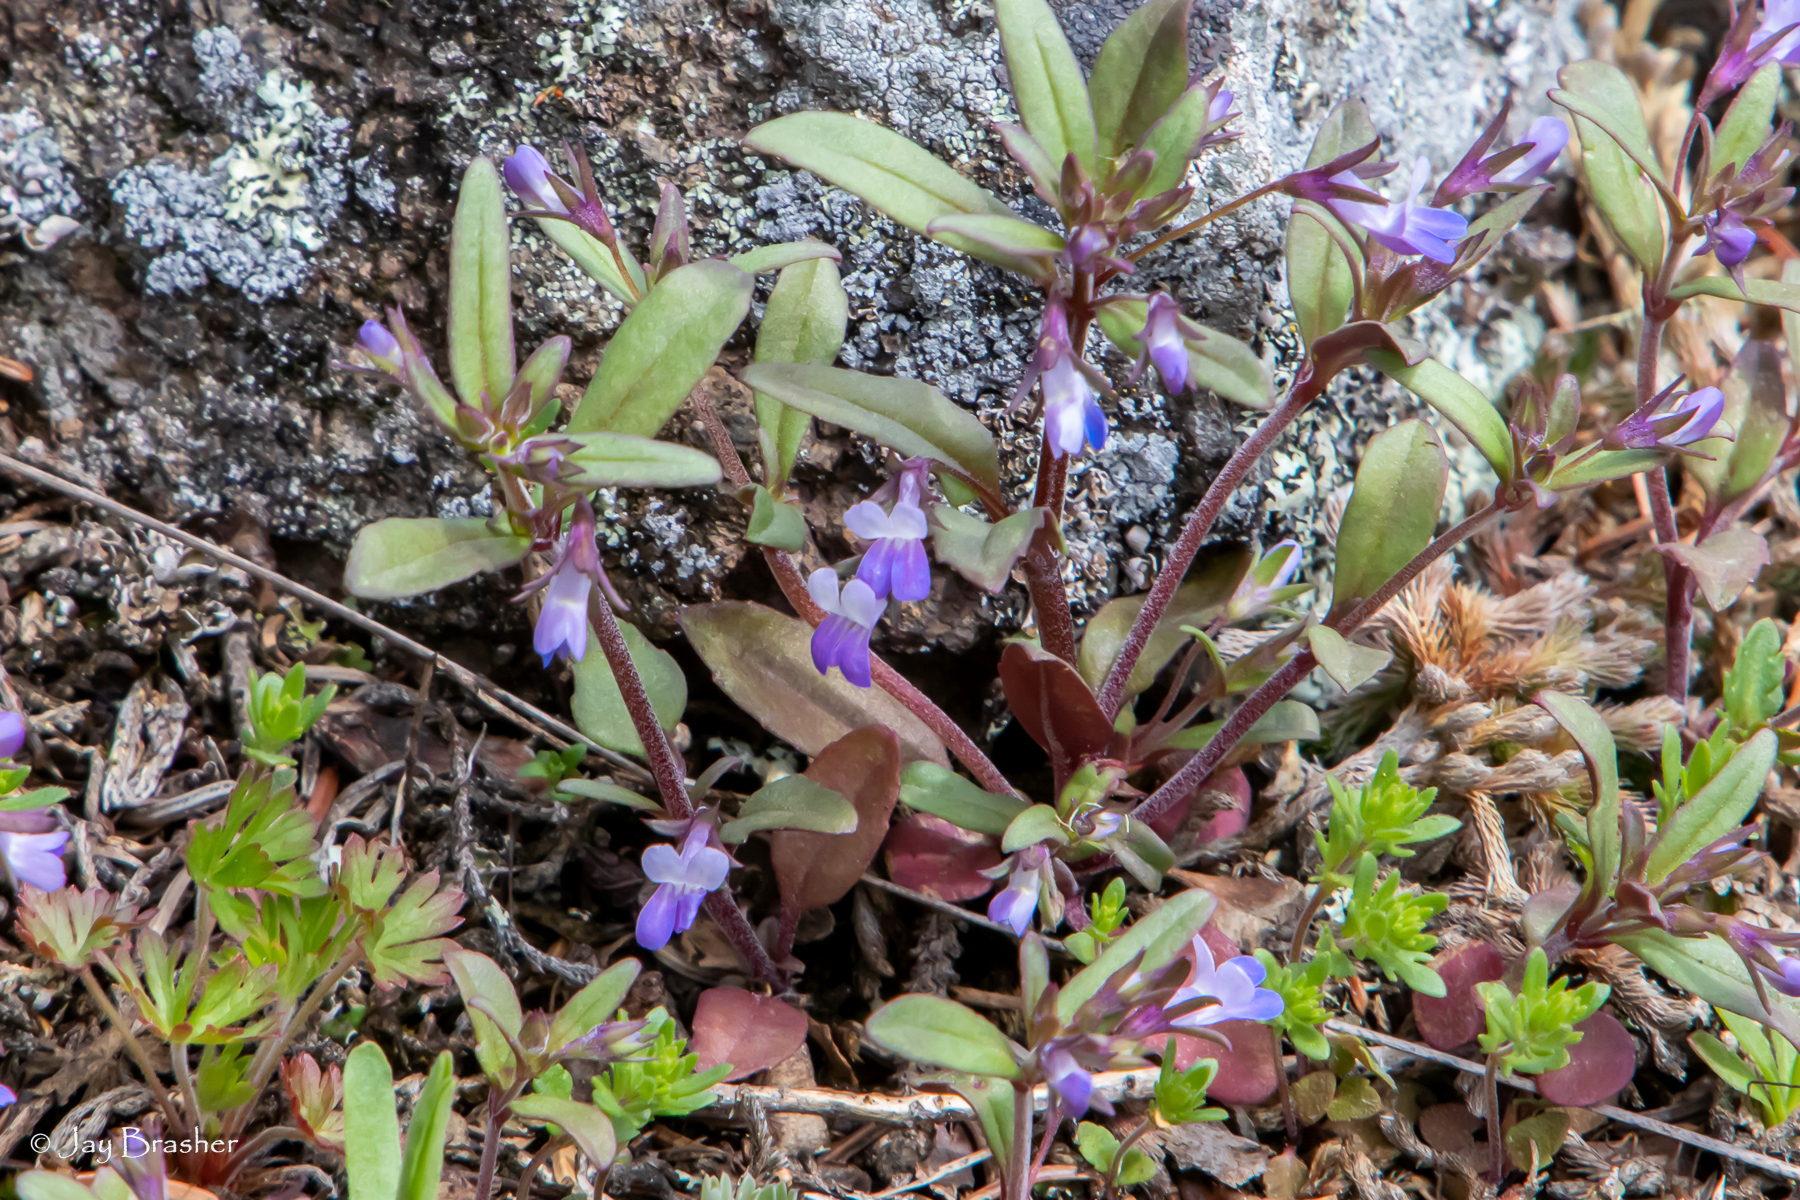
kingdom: Plantae
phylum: Tracheophyta
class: Magnoliopsida
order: Lamiales
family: Plantaginaceae
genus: Collinsia
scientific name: Collinsia parviflora
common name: Blue-lips
